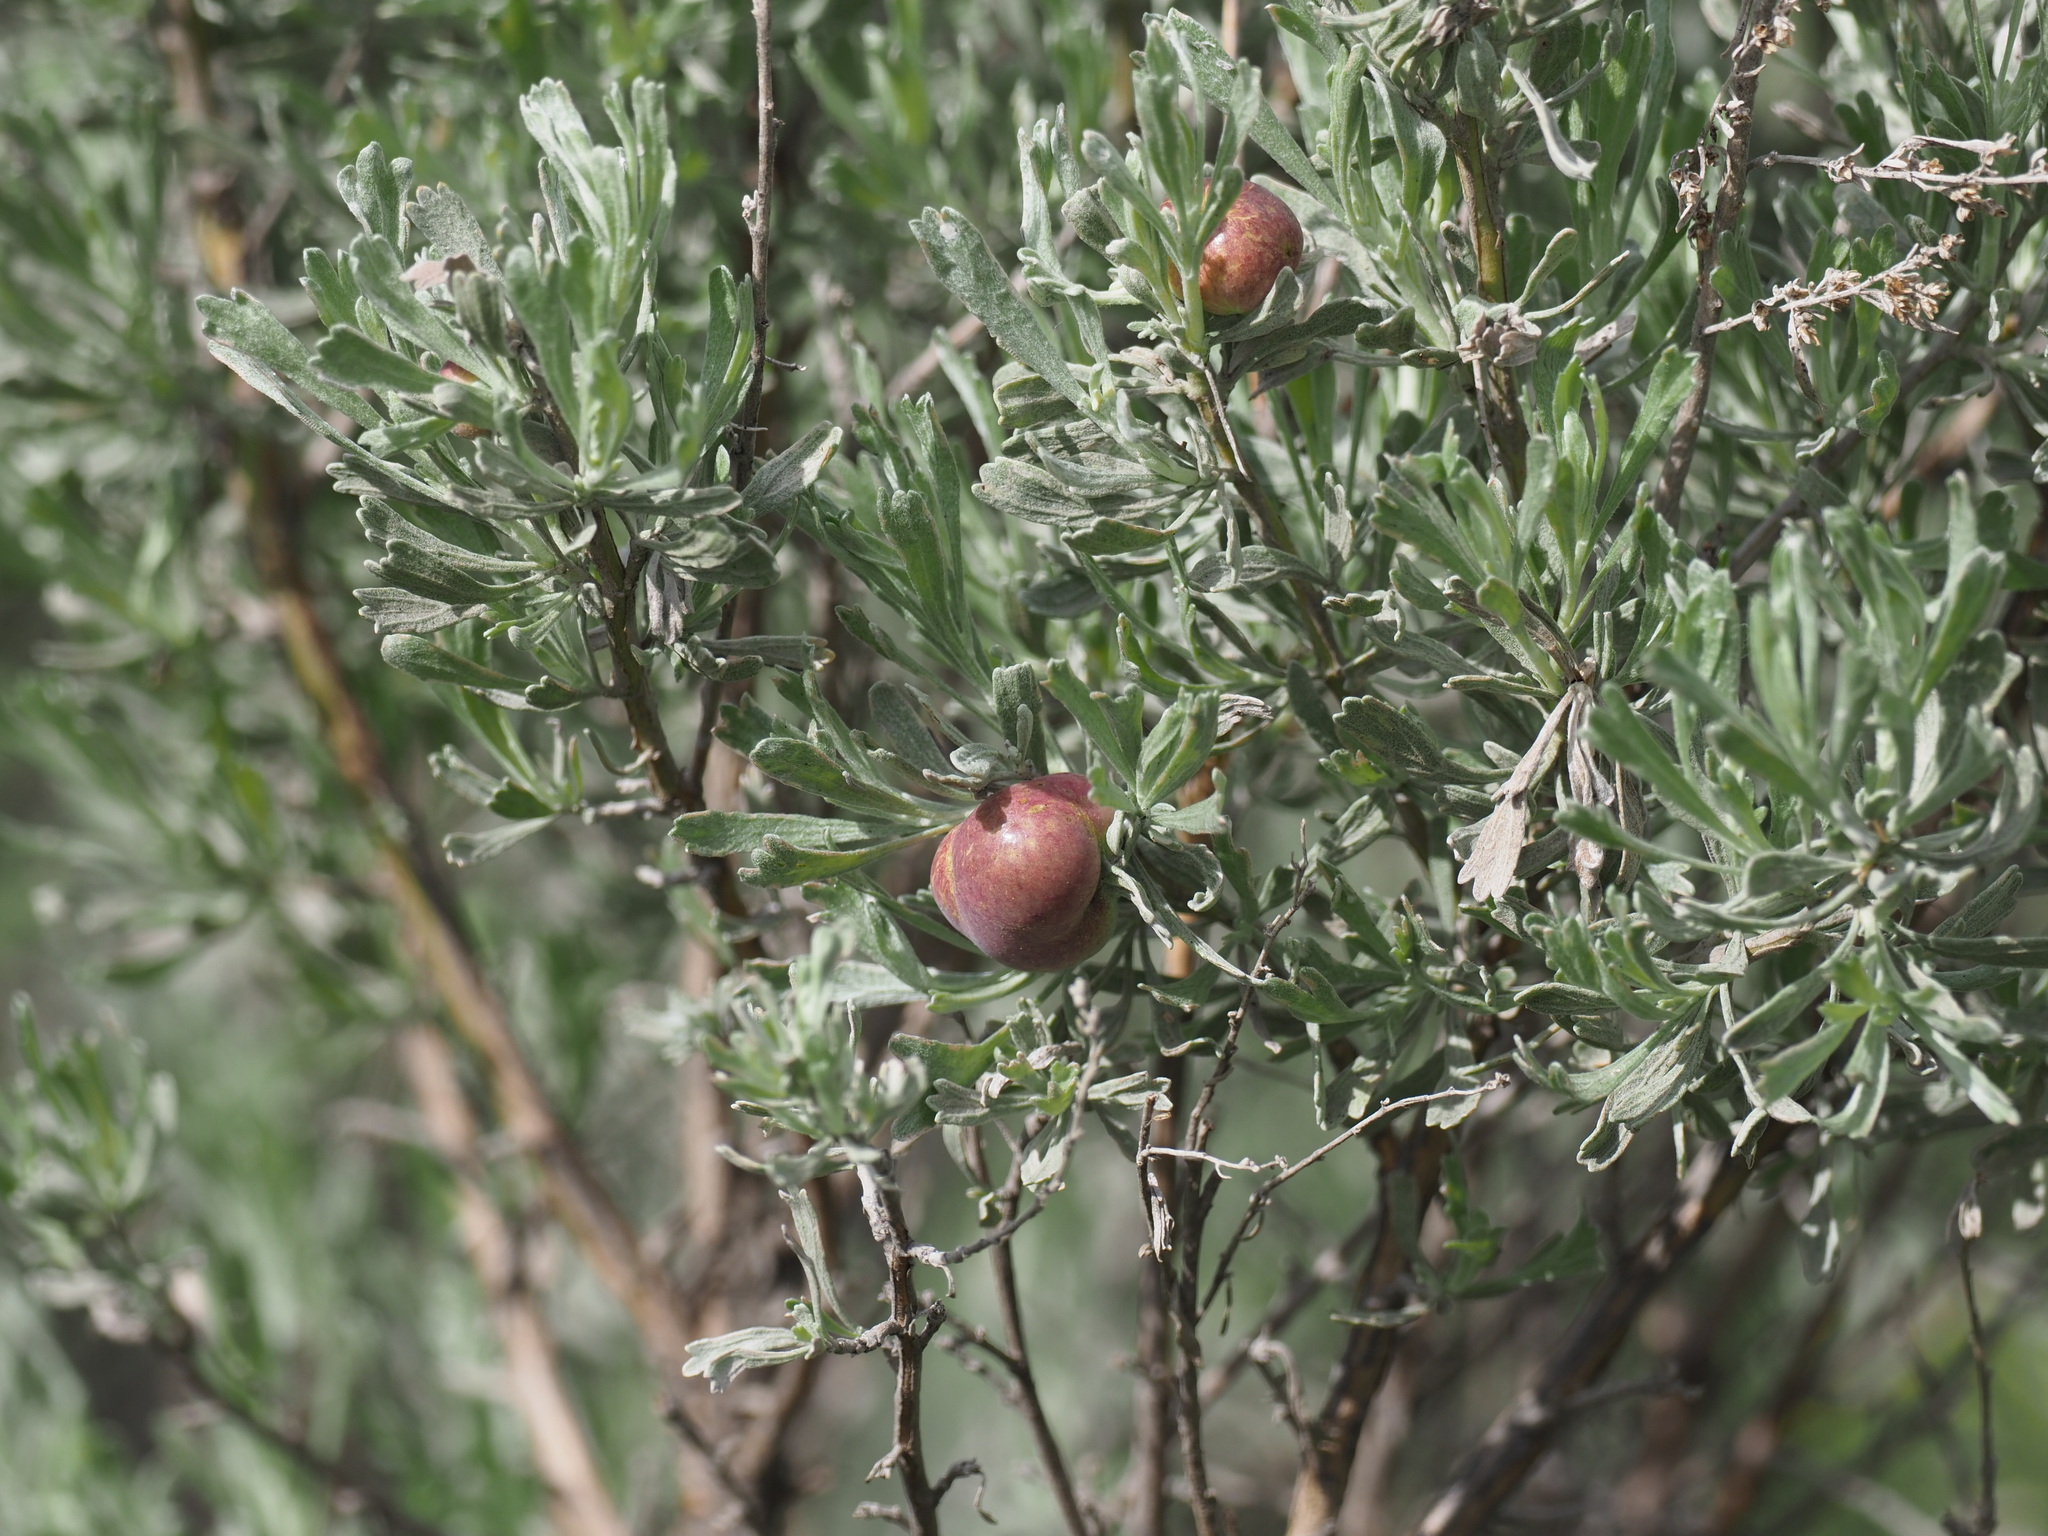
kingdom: Plantae
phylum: Tracheophyta
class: Magnoliopsida
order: Asterales
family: Asteraceae
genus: Artemisia
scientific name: Artemisia tridentata
